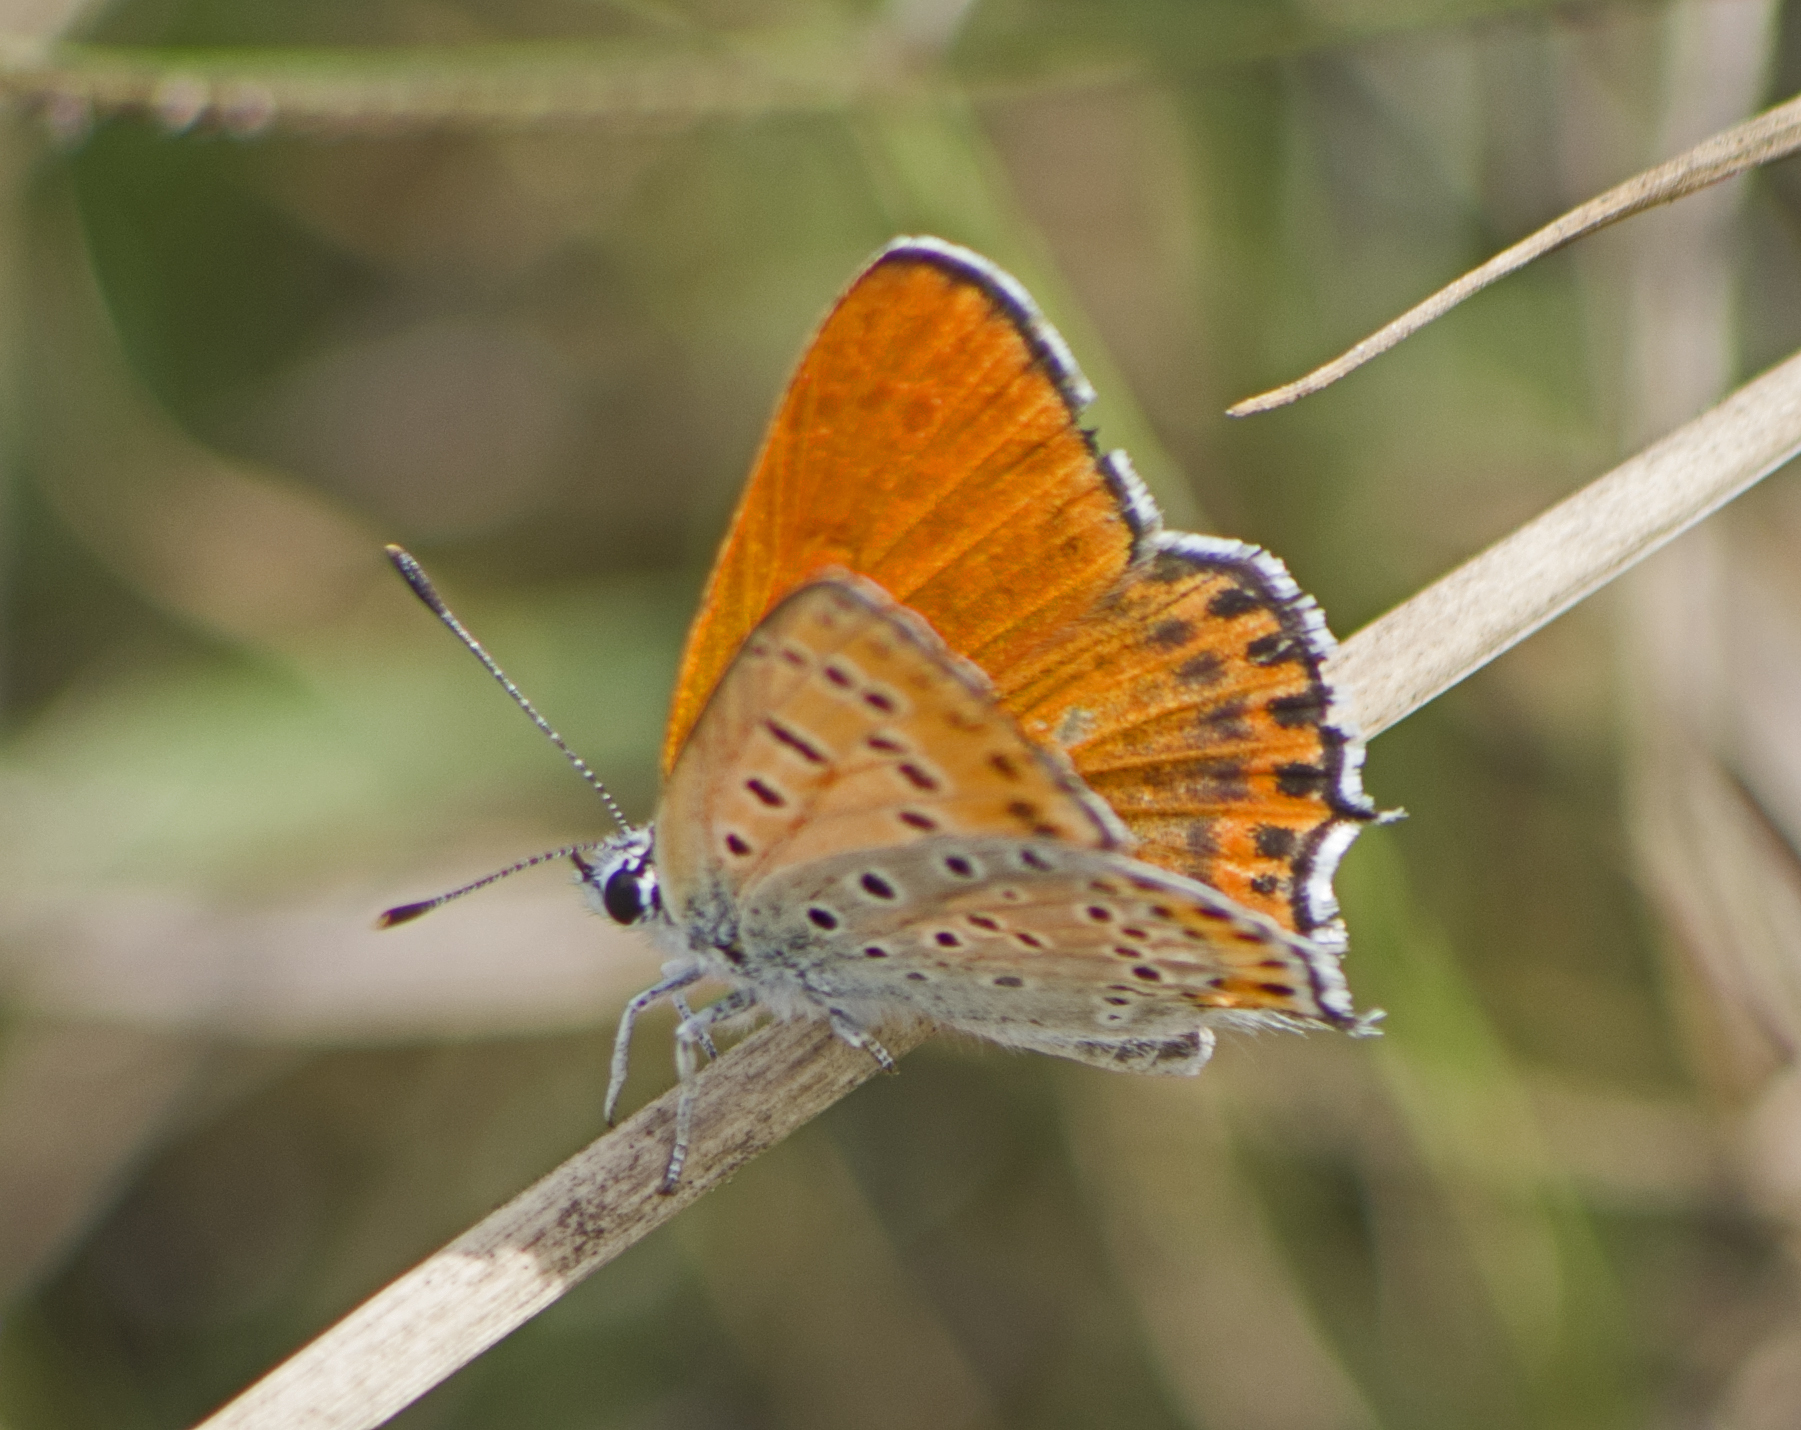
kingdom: Animalia
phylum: Arthropoda
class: Insecta
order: Lepidoptera
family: Lycaenidae
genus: Thersamonia
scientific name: Thersamonia thersamon
